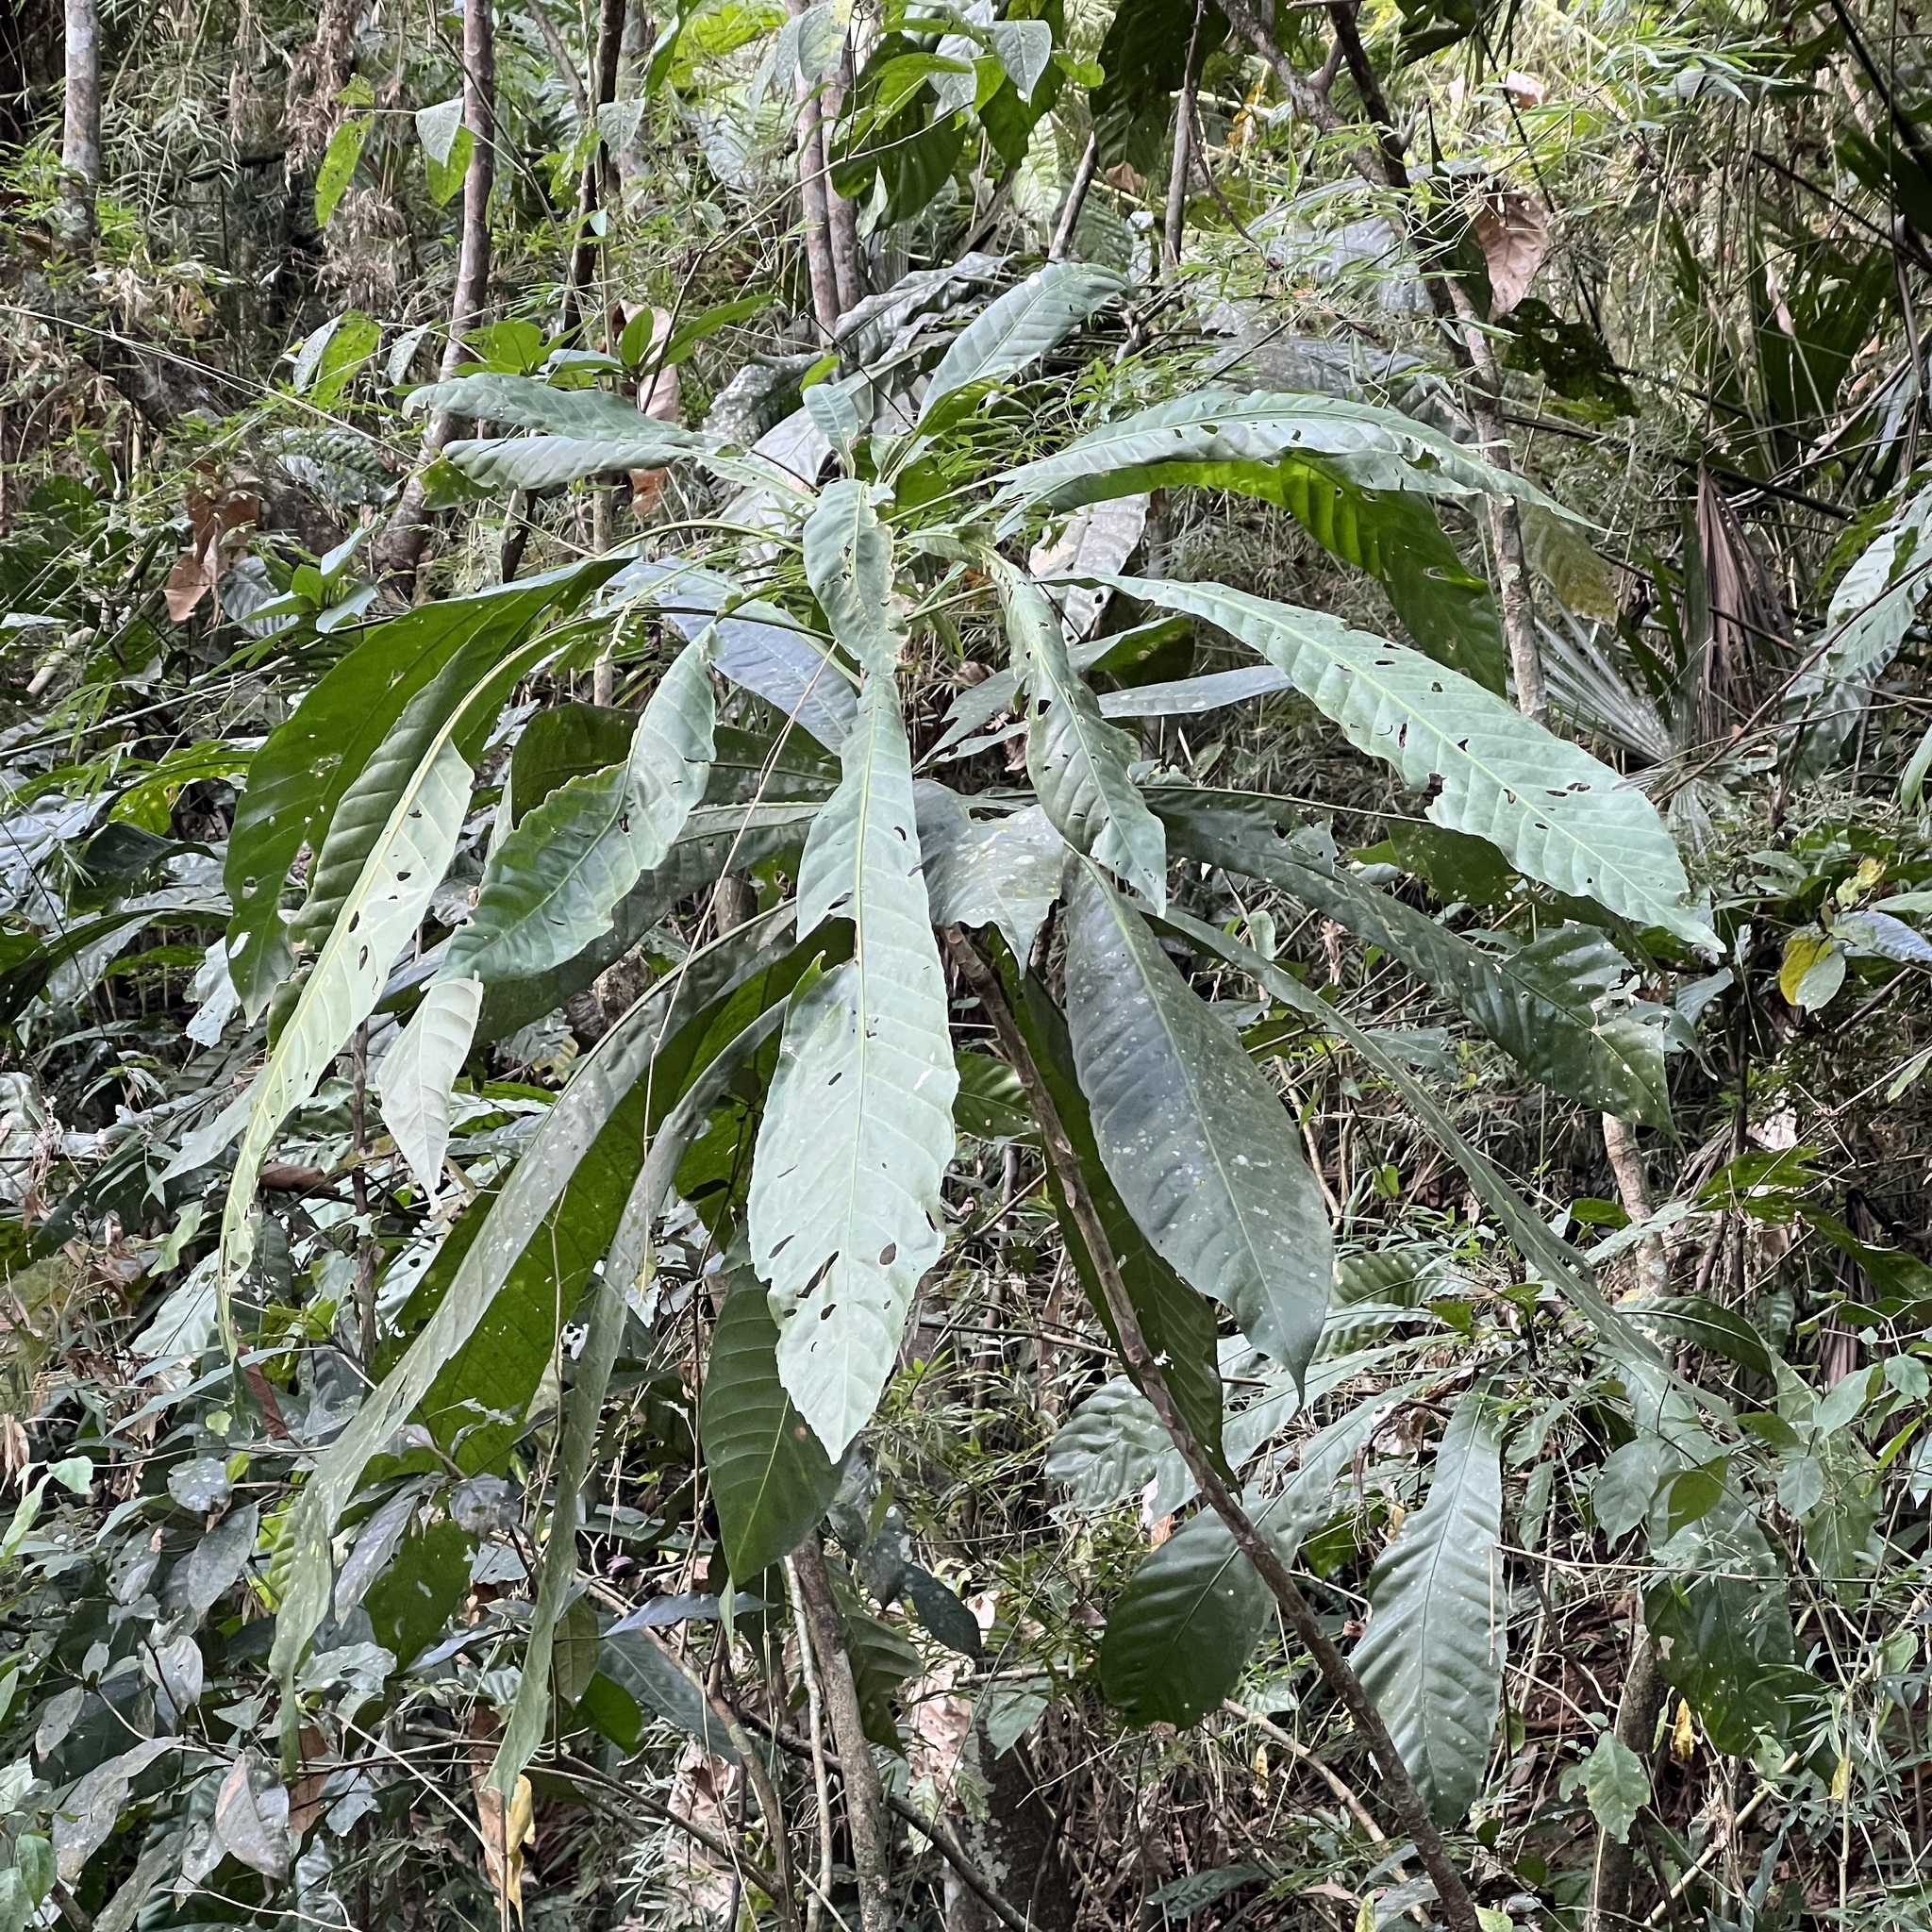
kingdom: Plantae
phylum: Tracheophyta
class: Magnoliopsida
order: Ericales
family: Lecythidaceae
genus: Gustavia
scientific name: Gustavia superba
